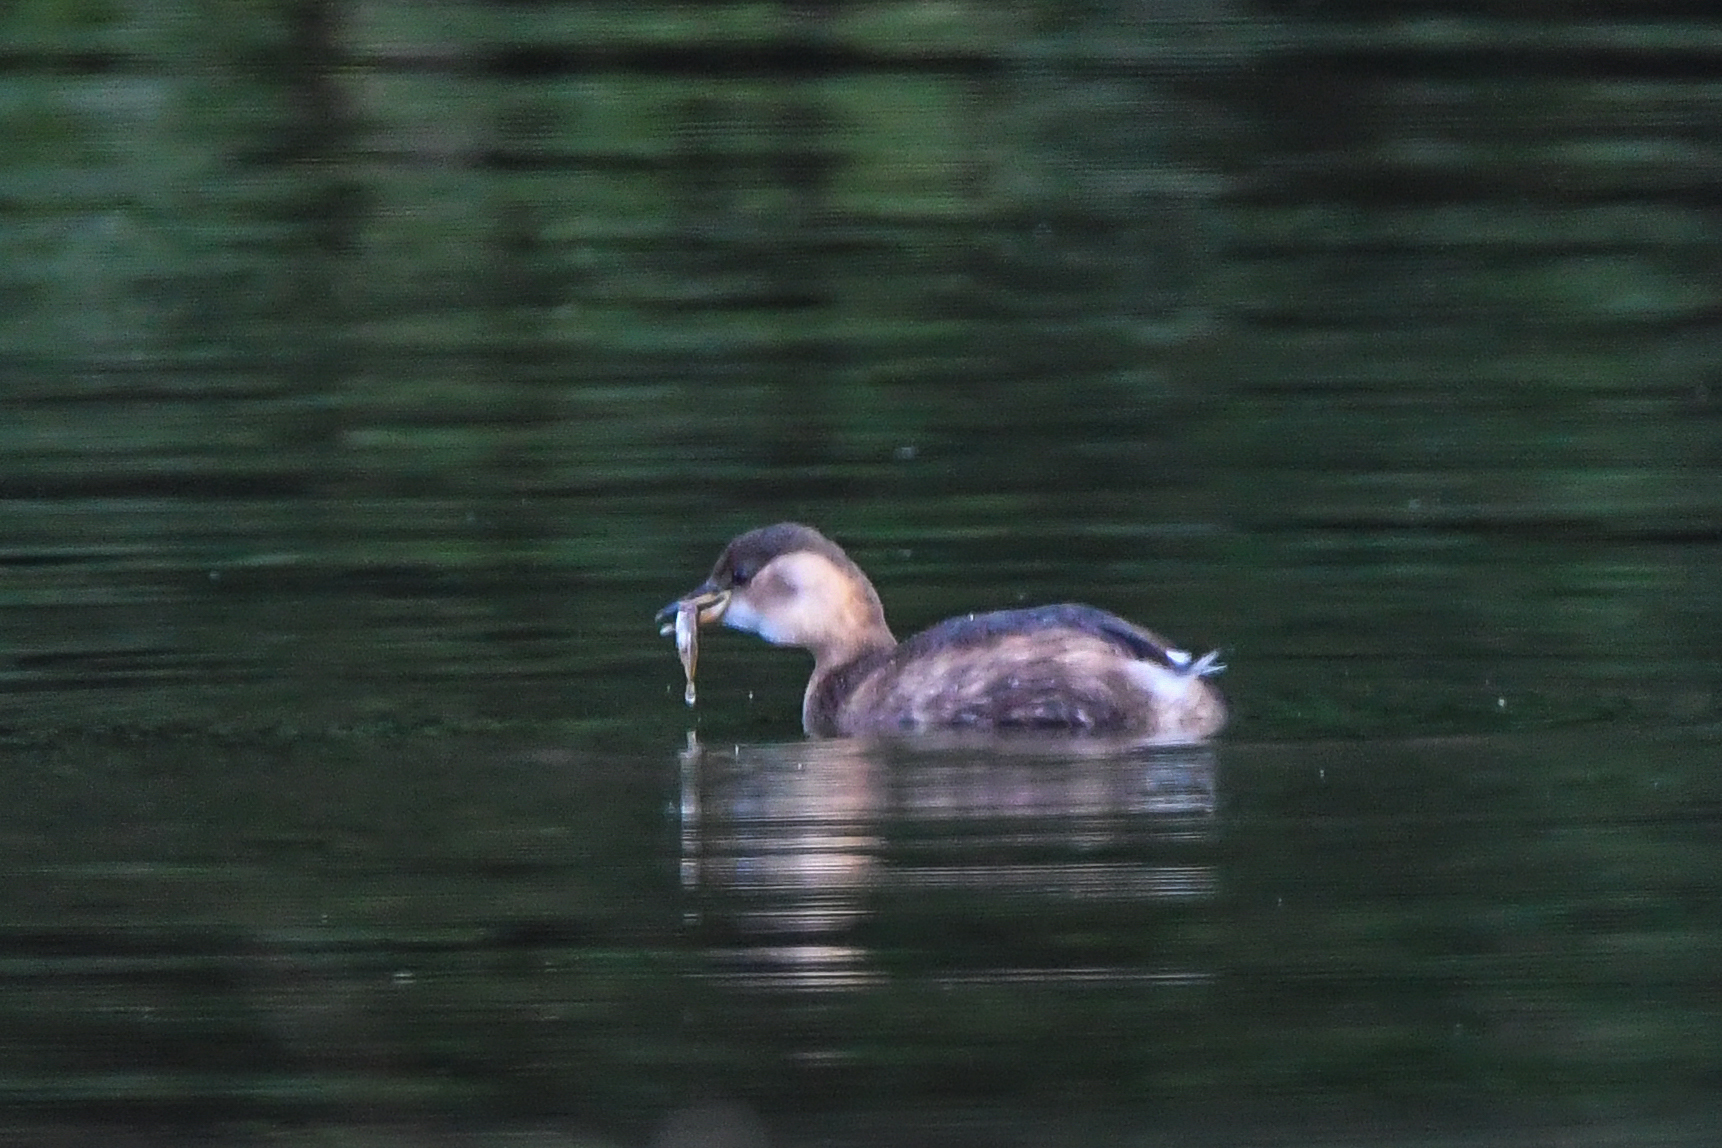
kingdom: Animalia
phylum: Chordata
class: Aves
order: Podicipediformes
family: Podicipedidae
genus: Tachybaptus
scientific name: Tachybaptus ruficollis
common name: Little grebe
